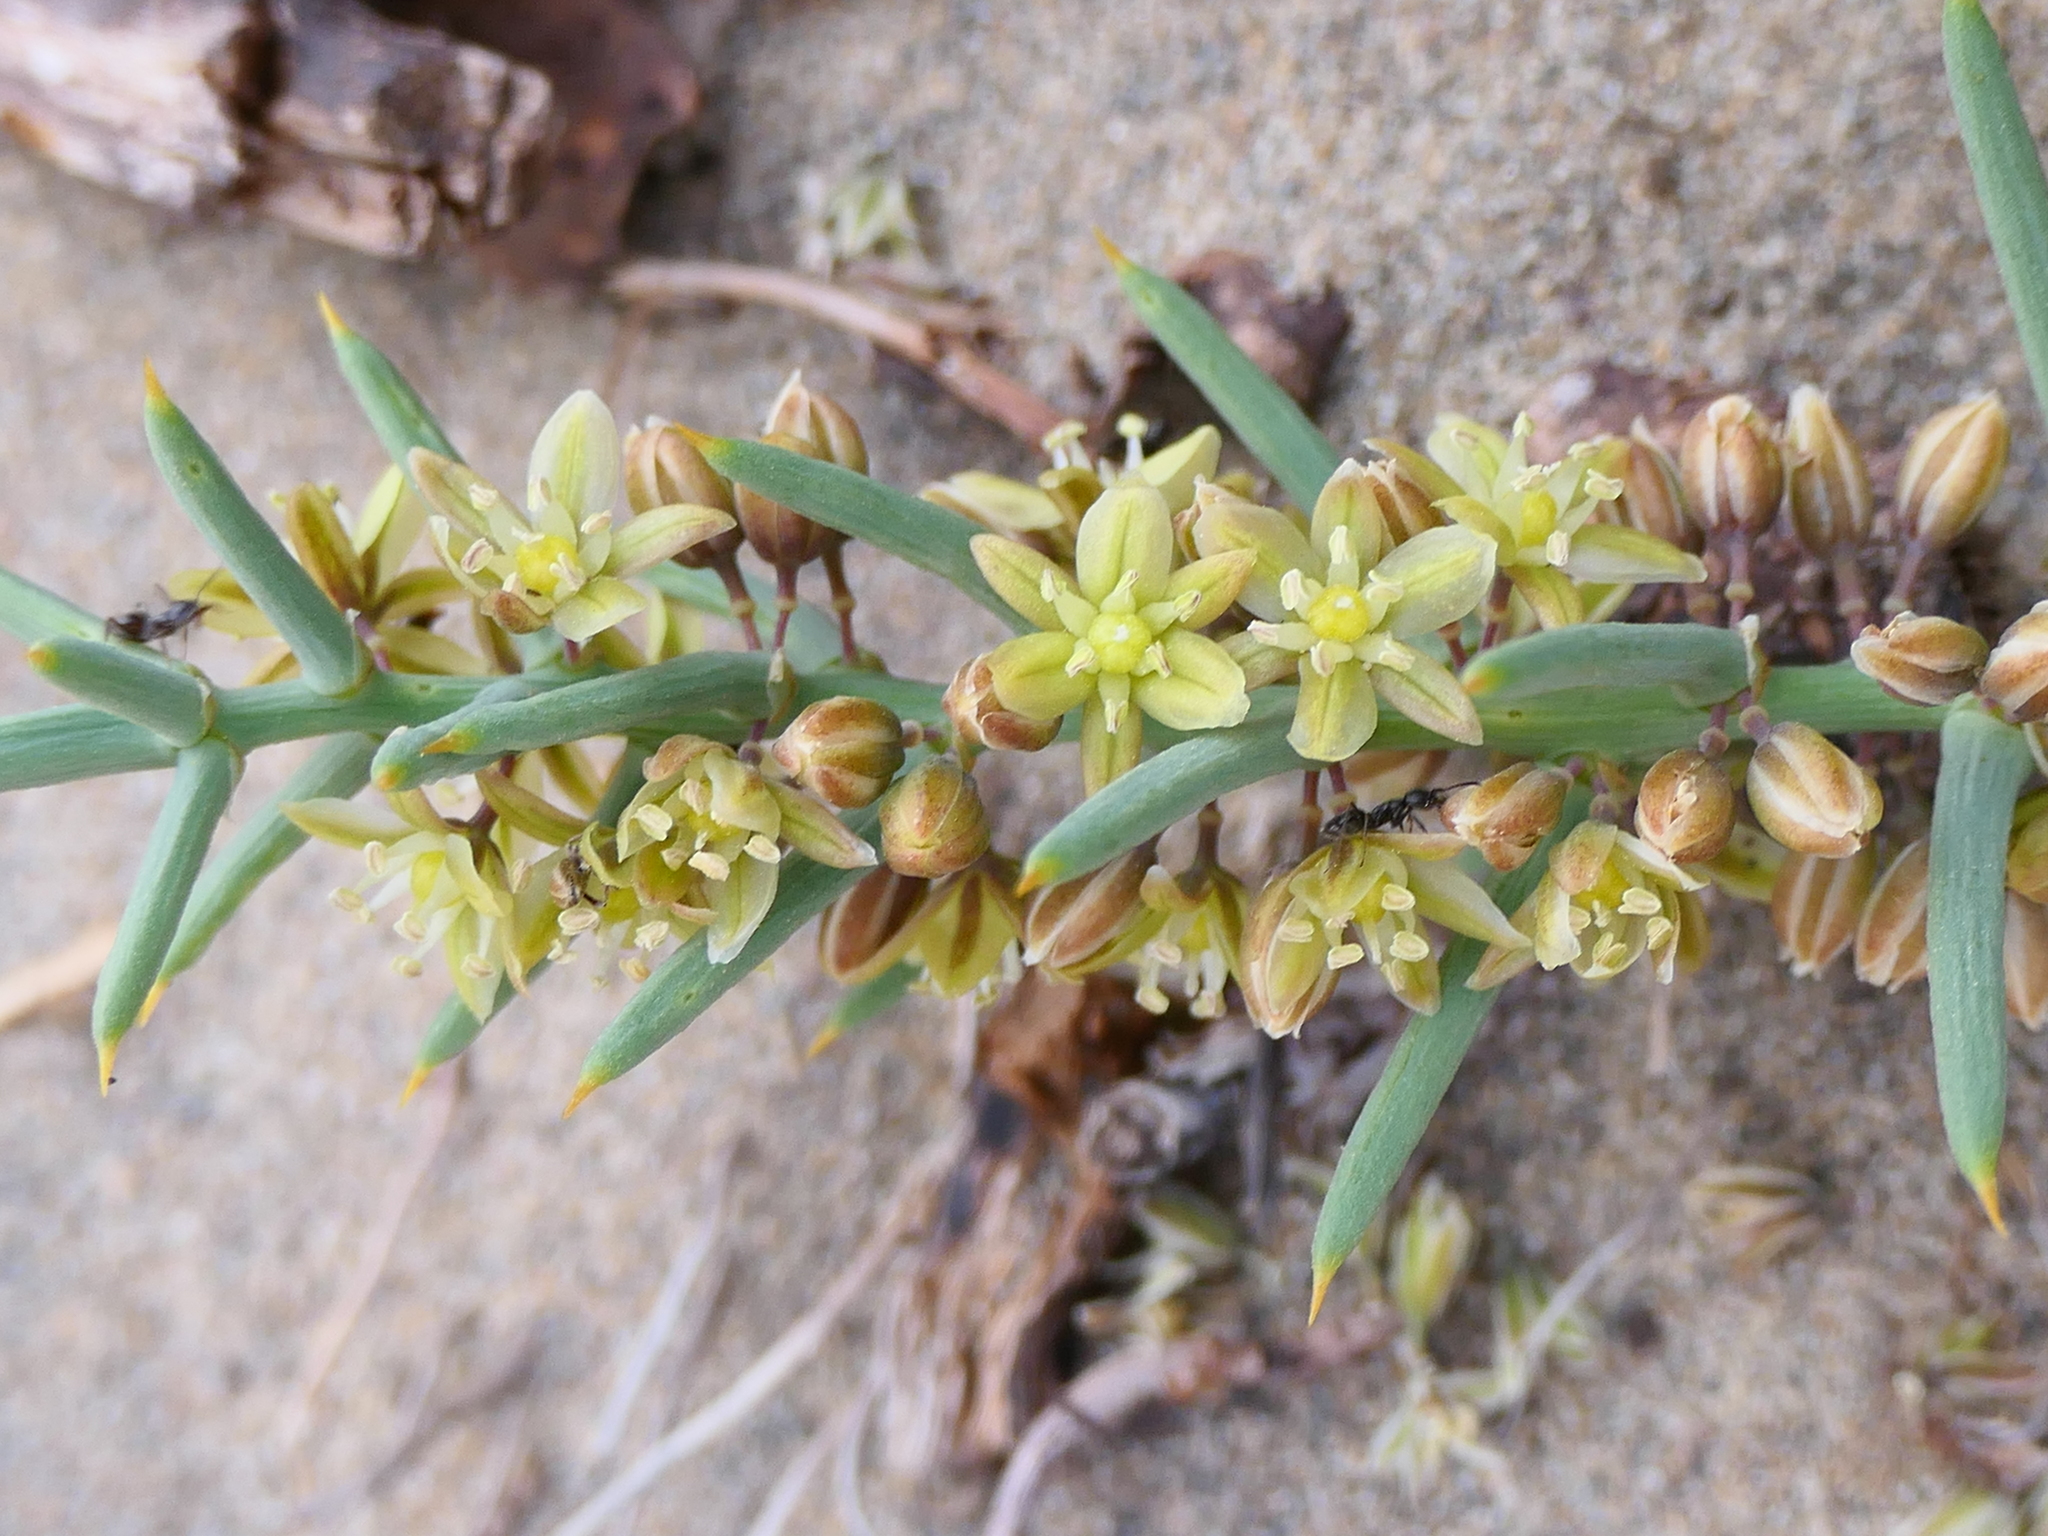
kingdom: Plantae
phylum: Tracheophyta
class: Liliopsida
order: Asparagales
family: Asparagaceae
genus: Asparagus
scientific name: Asparagus horridus
